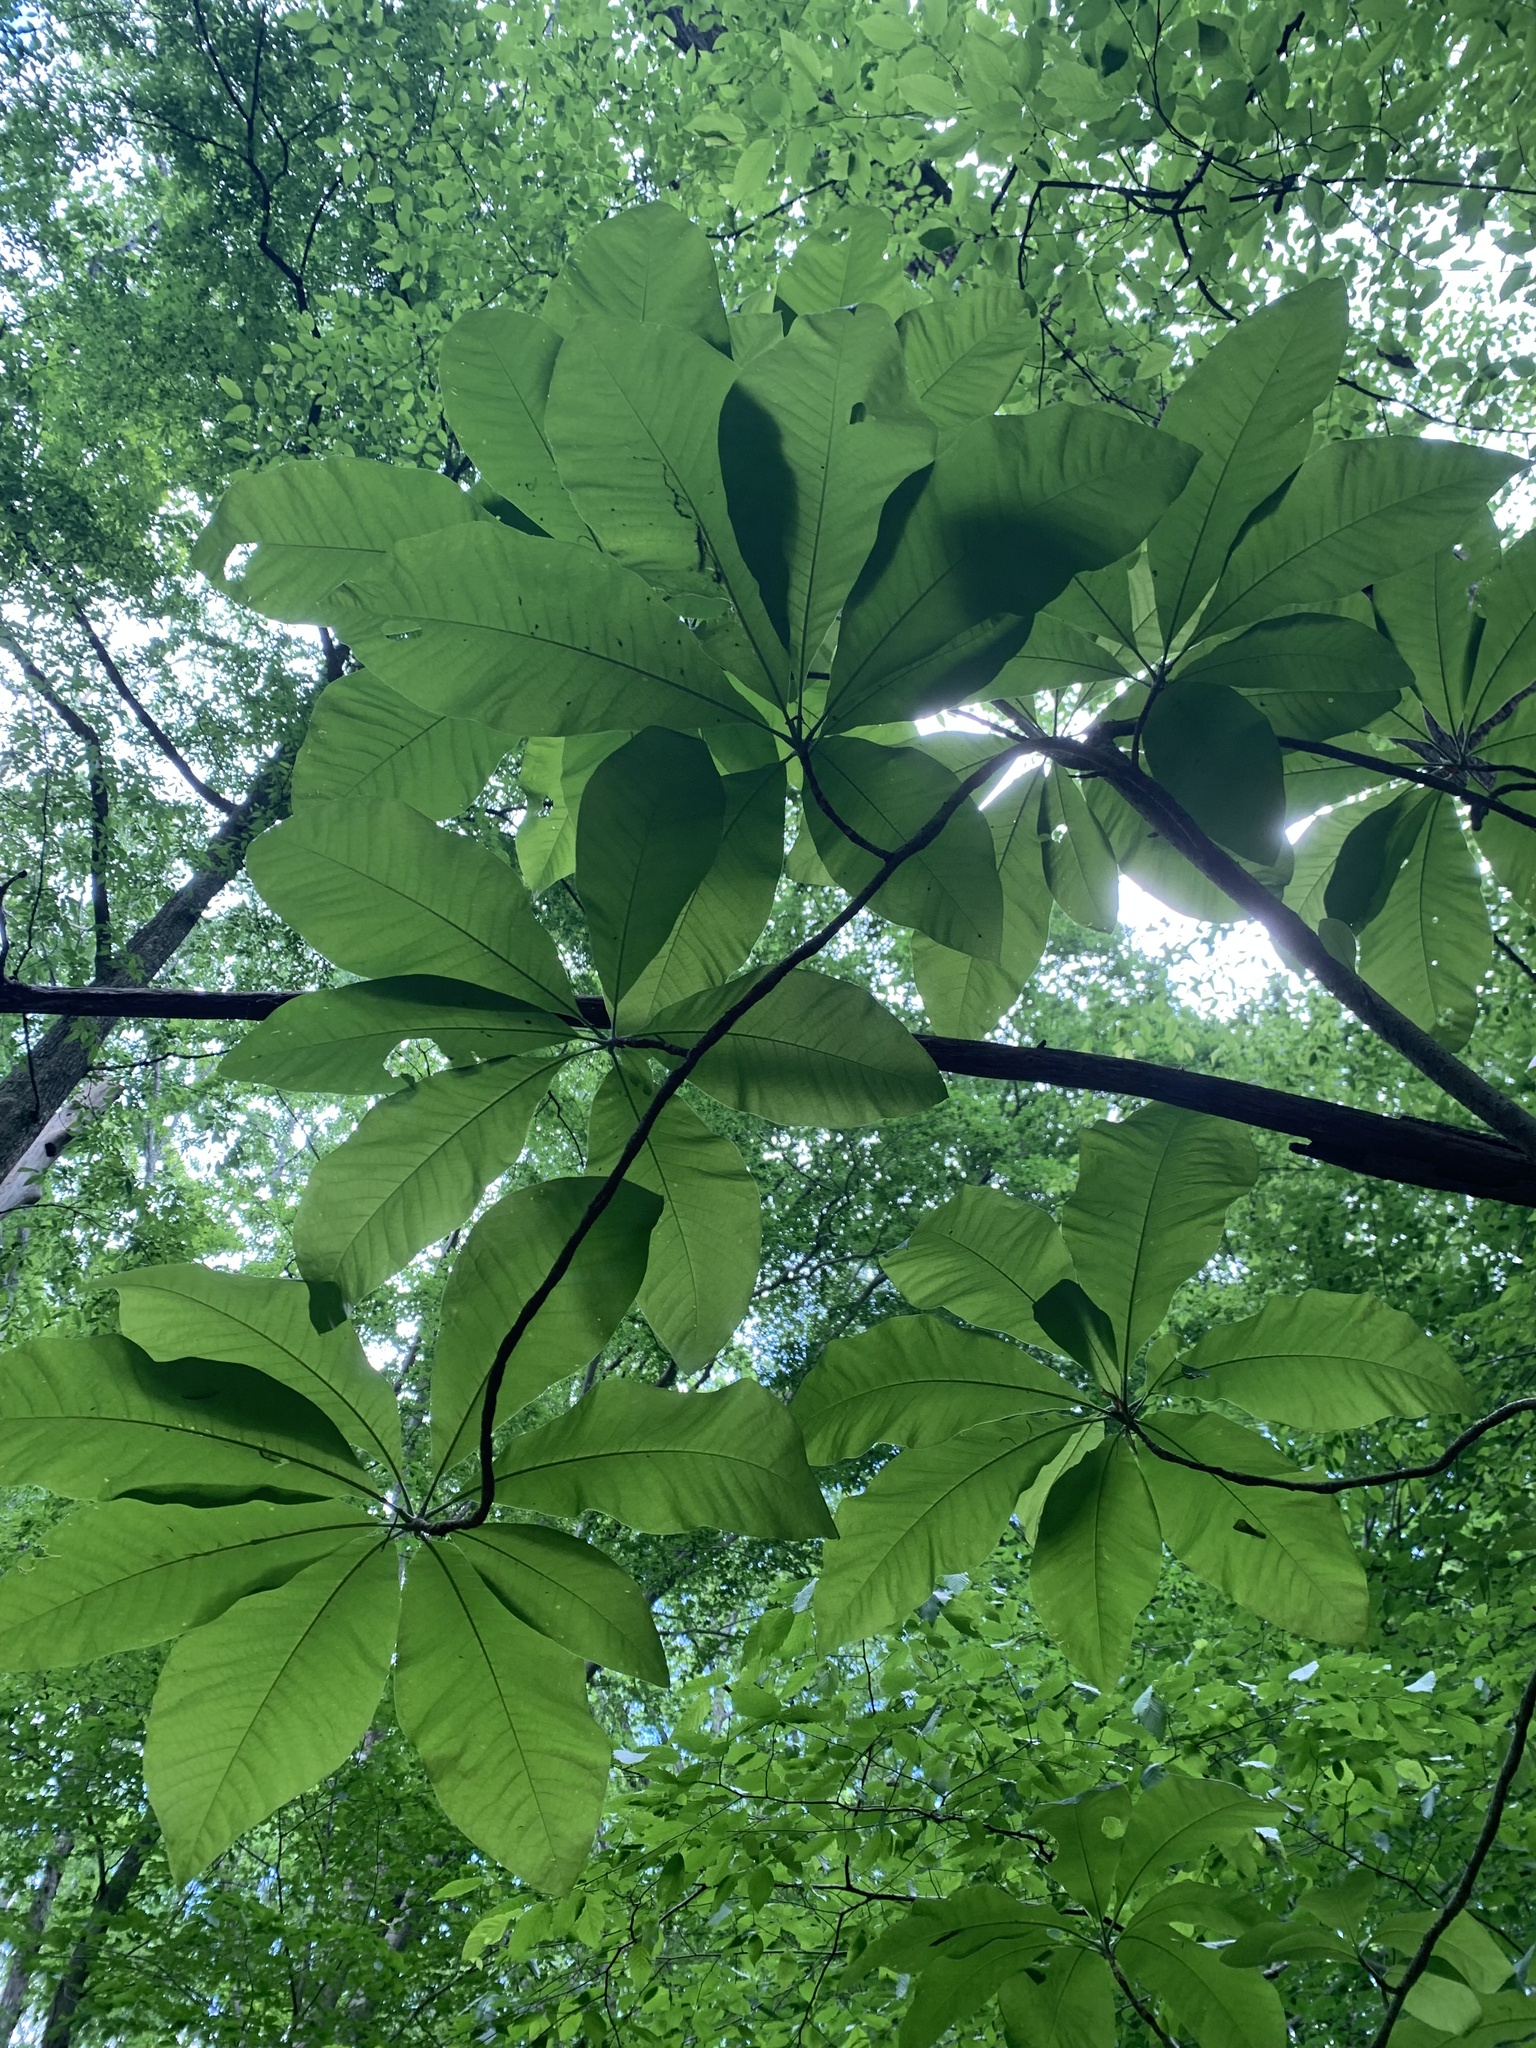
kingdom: Plantae
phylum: Tracheophyta
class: Magnoliopsida
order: Magnoliales
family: Magnoliaceae
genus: Magnolia
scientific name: Magnolia tripetala
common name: Umbrella magnolia
